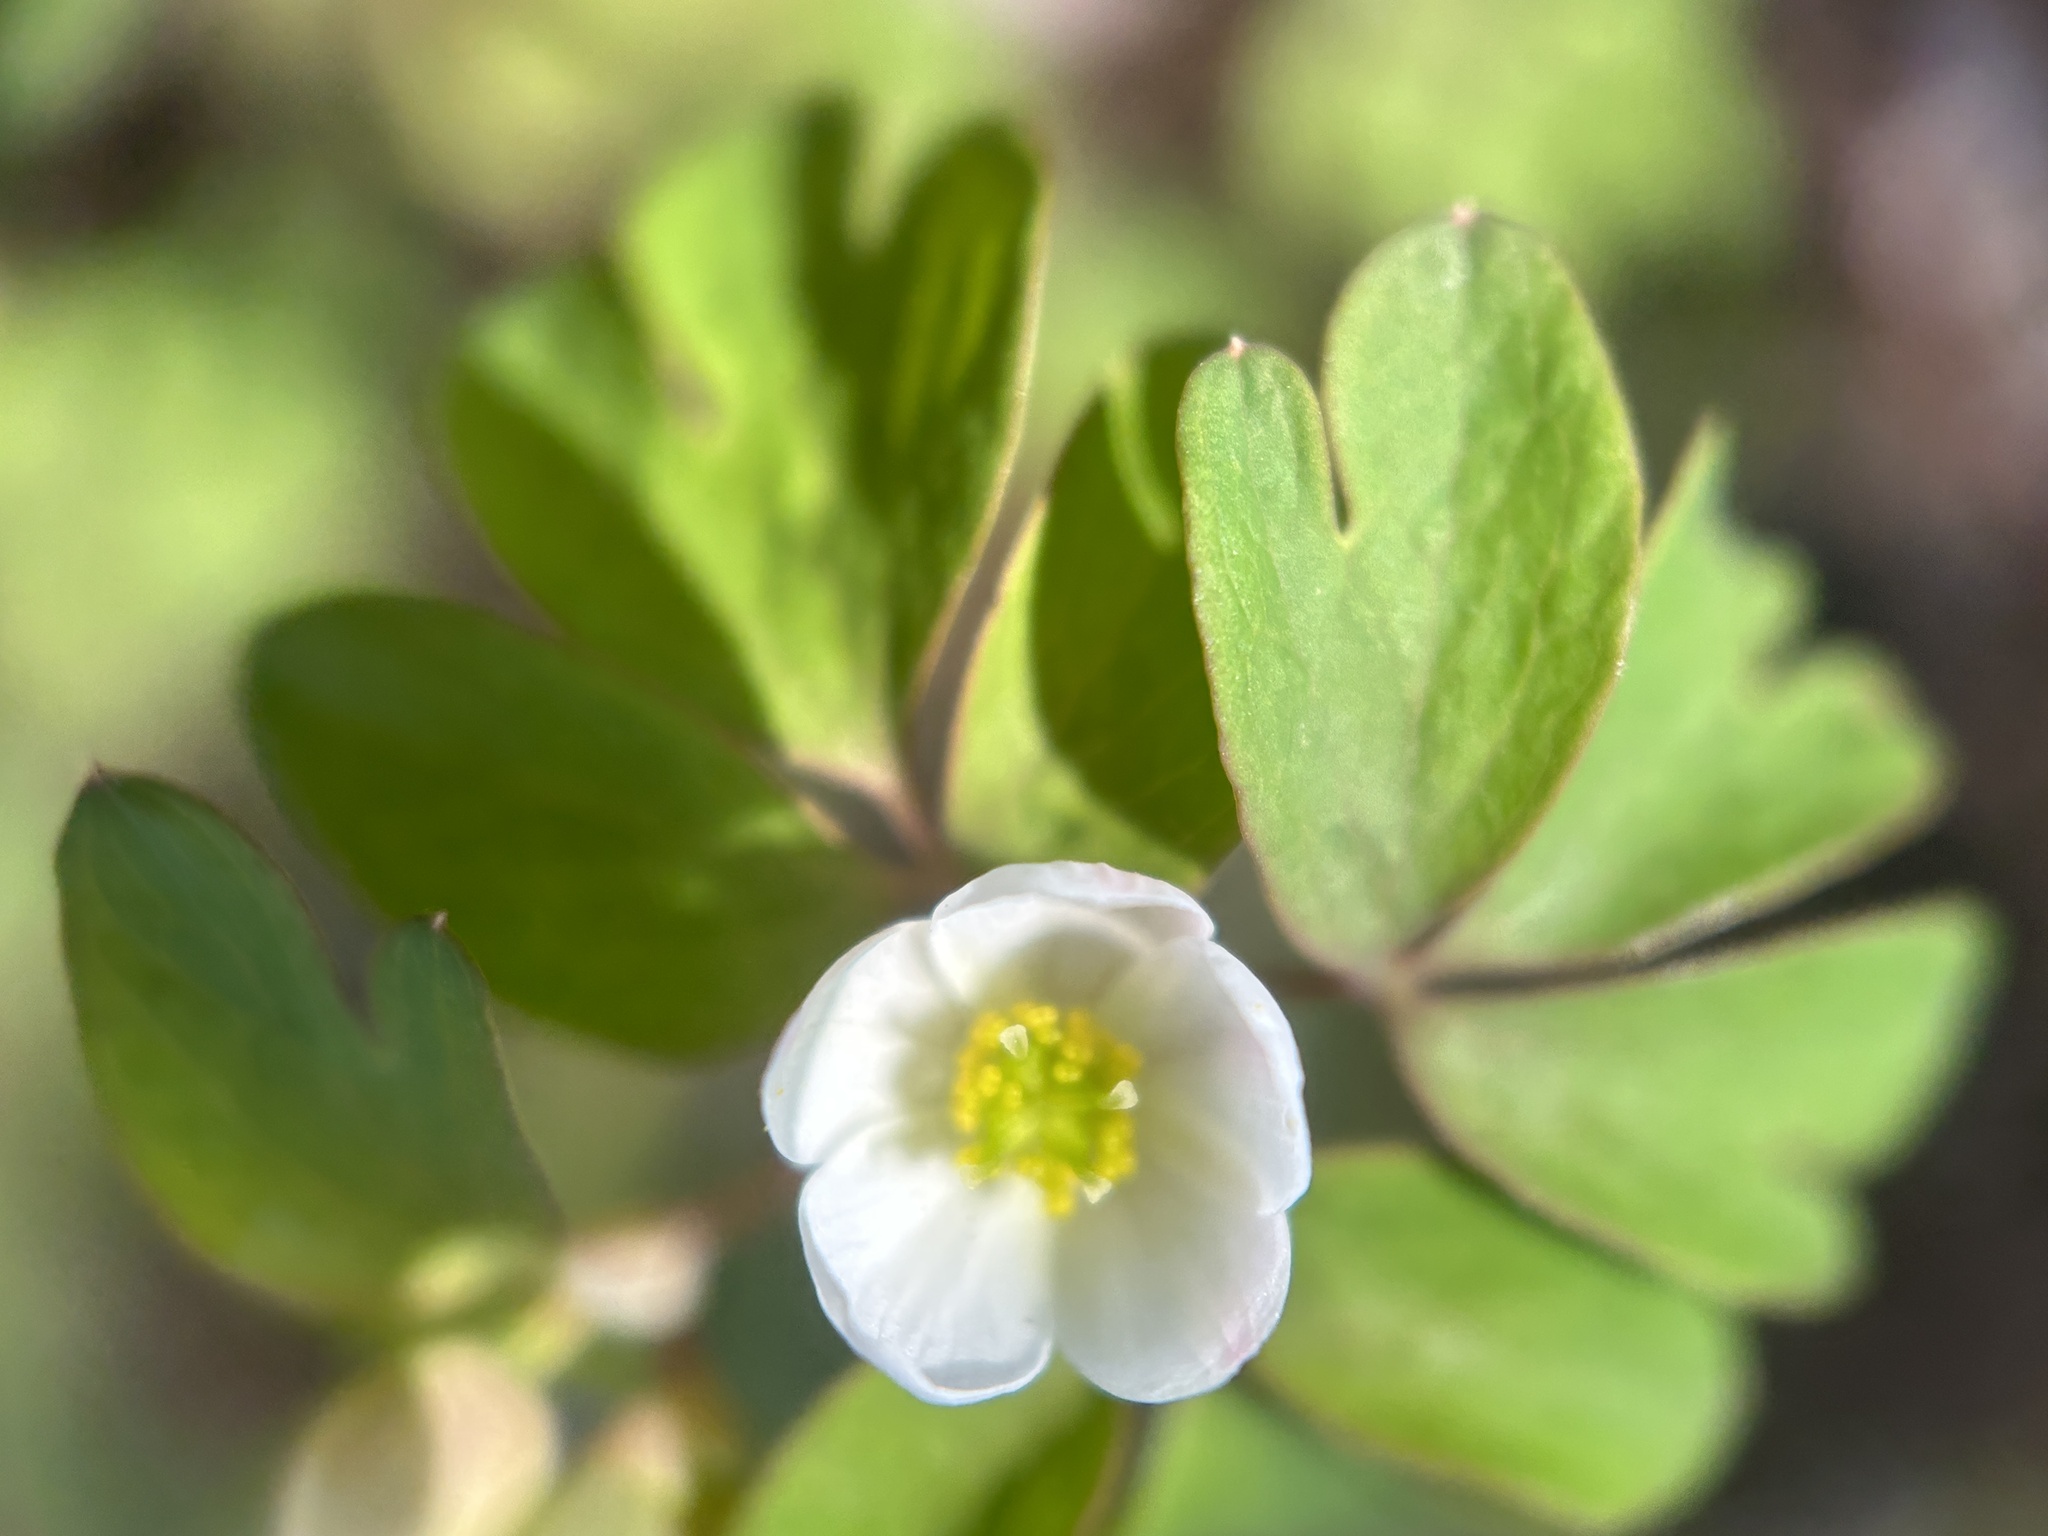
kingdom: Plantae
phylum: Tracheophyta
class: Magnoliopsida
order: Ranunculales
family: Ranunculaceae
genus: Enemion
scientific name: Enemion biternatum
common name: Eastern false rue-anemone
